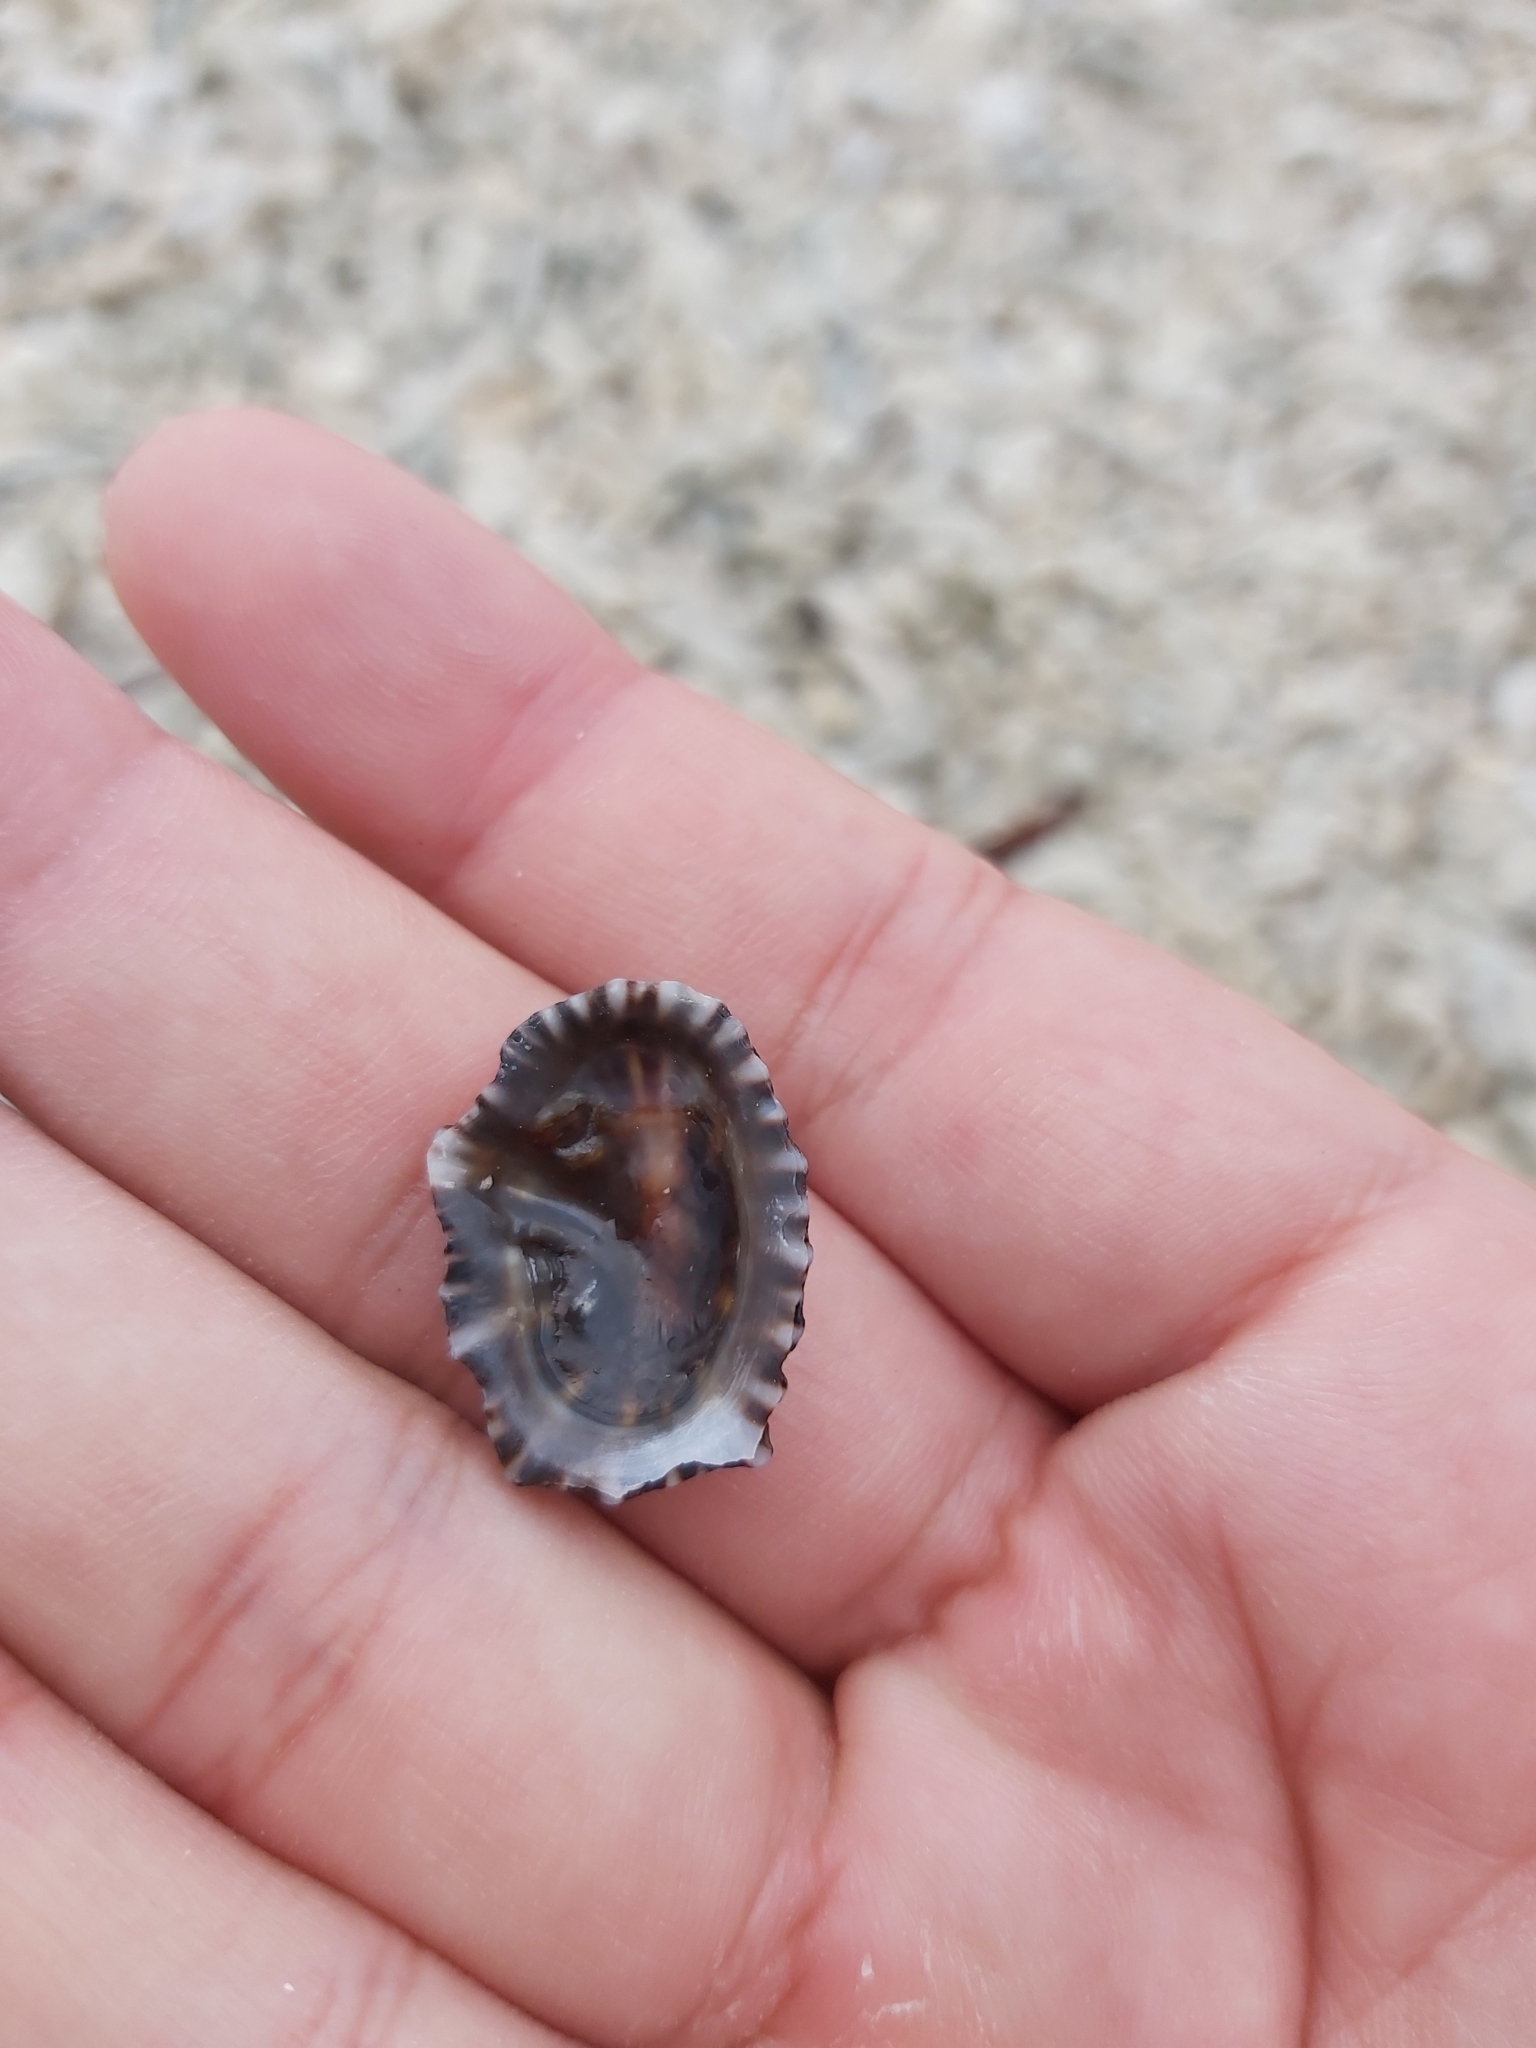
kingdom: Animalia
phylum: Mollusca
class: Gastropoda
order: Siphonariida
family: Siphonariidae
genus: Siphonaria
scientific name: Siphonaria denticulata
